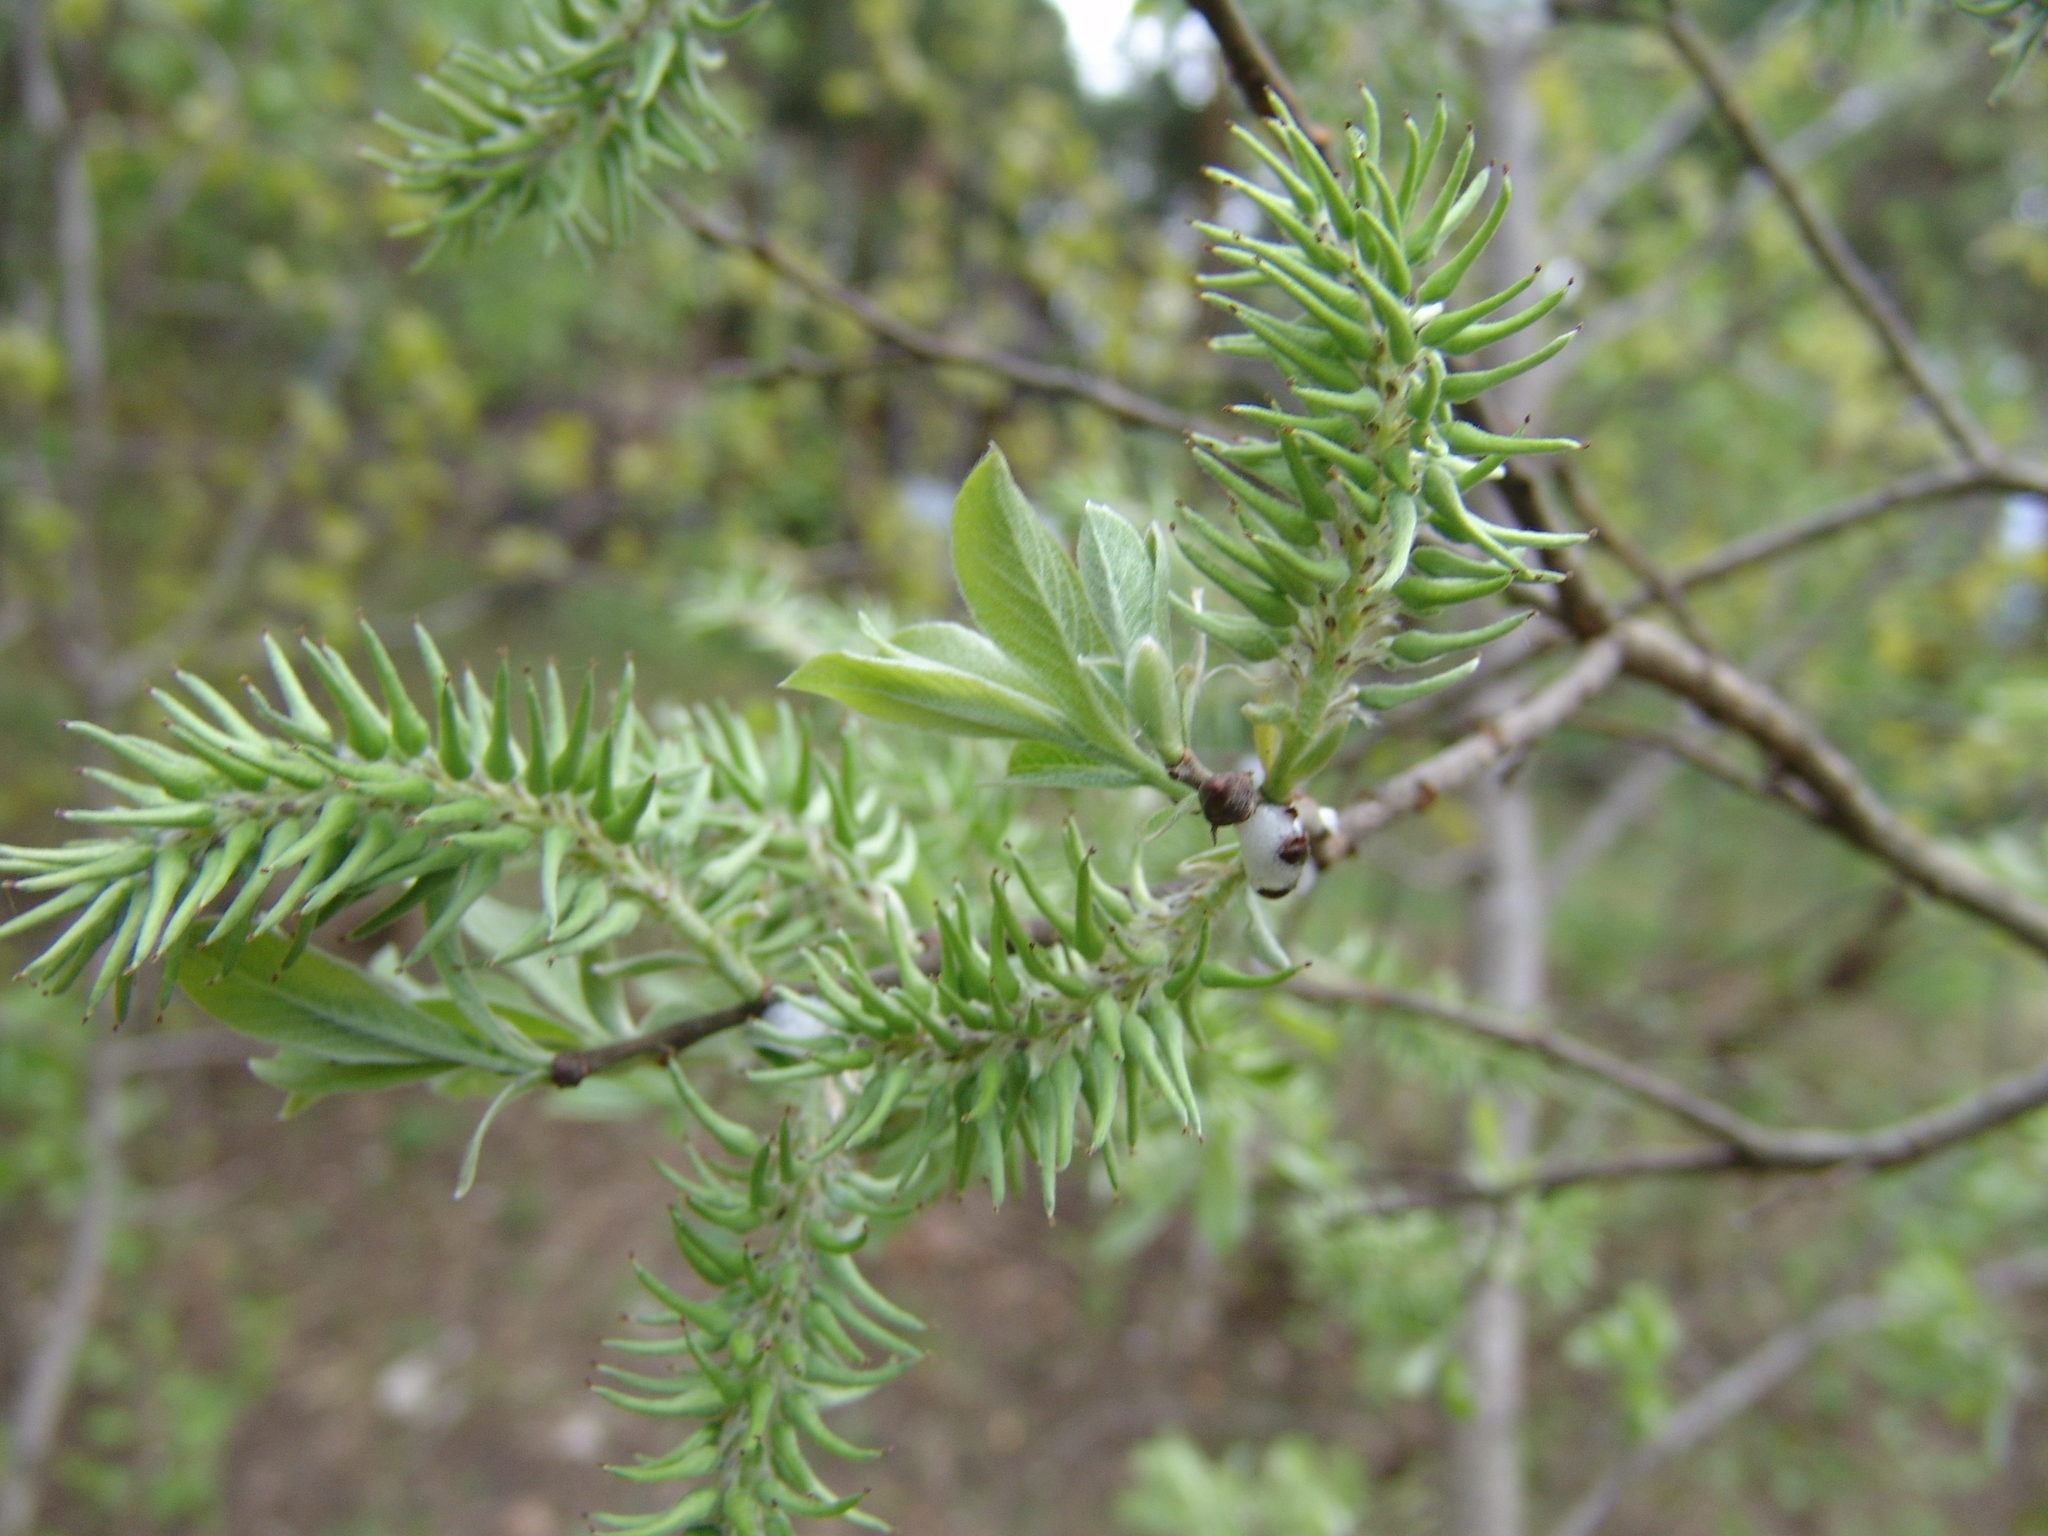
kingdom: Plantae
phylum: Tracheophyta
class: Magnoliopsida
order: Malpighiales
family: Salicaceae
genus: Salix
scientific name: Salix cinerea
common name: Common sallow
